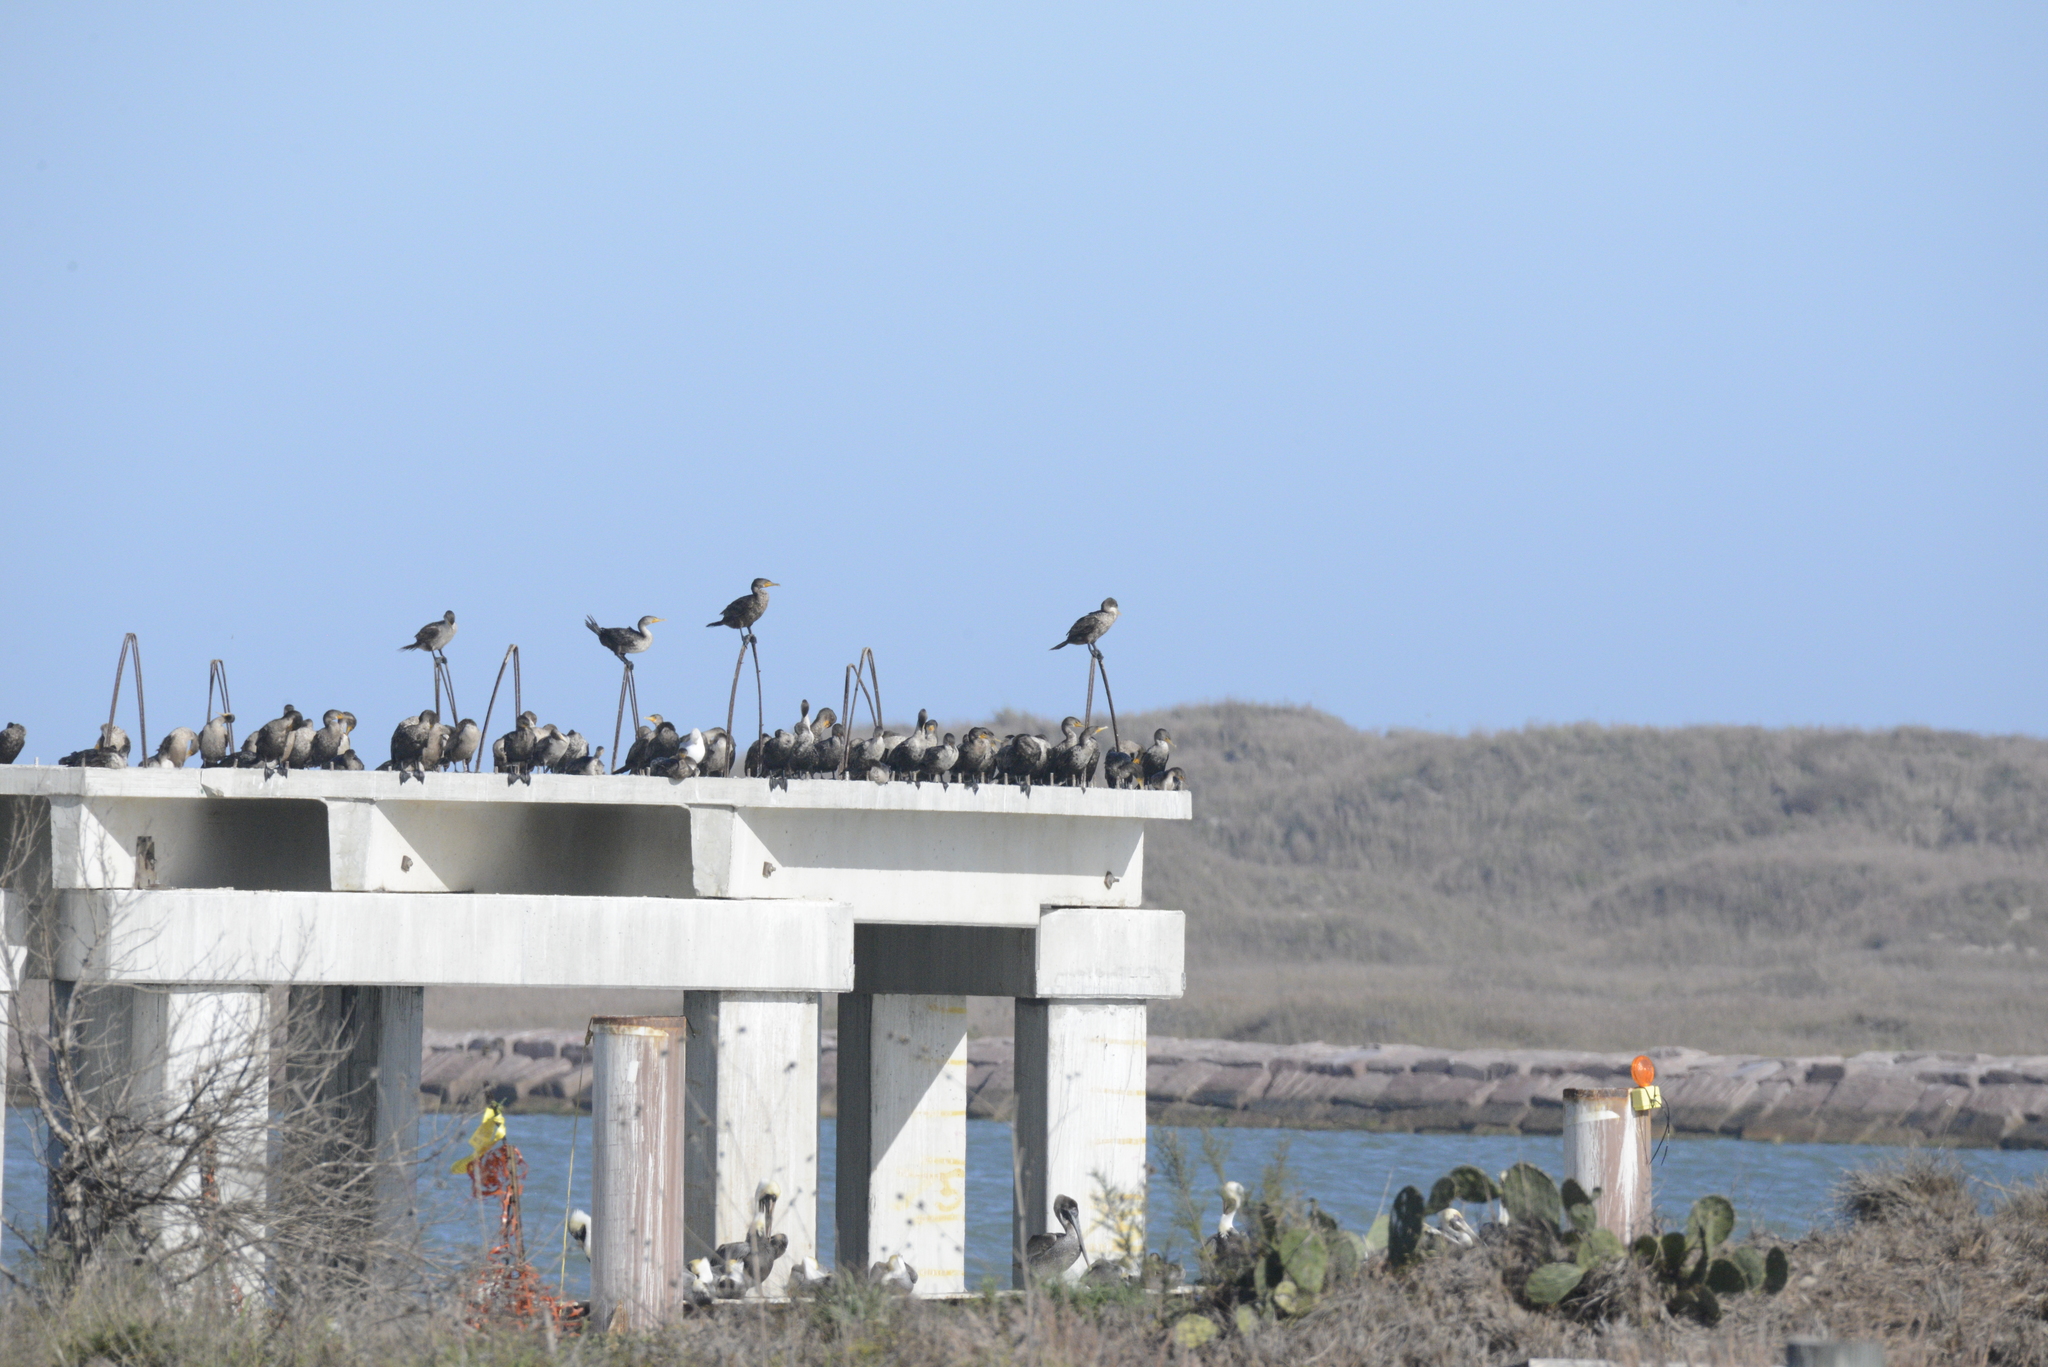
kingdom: Animalia
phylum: Chordata
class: Aves
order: Pelecaniformes
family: Pelecanidae
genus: Pelecanus
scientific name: Pelecanus occidentalis
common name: Brown pelican
